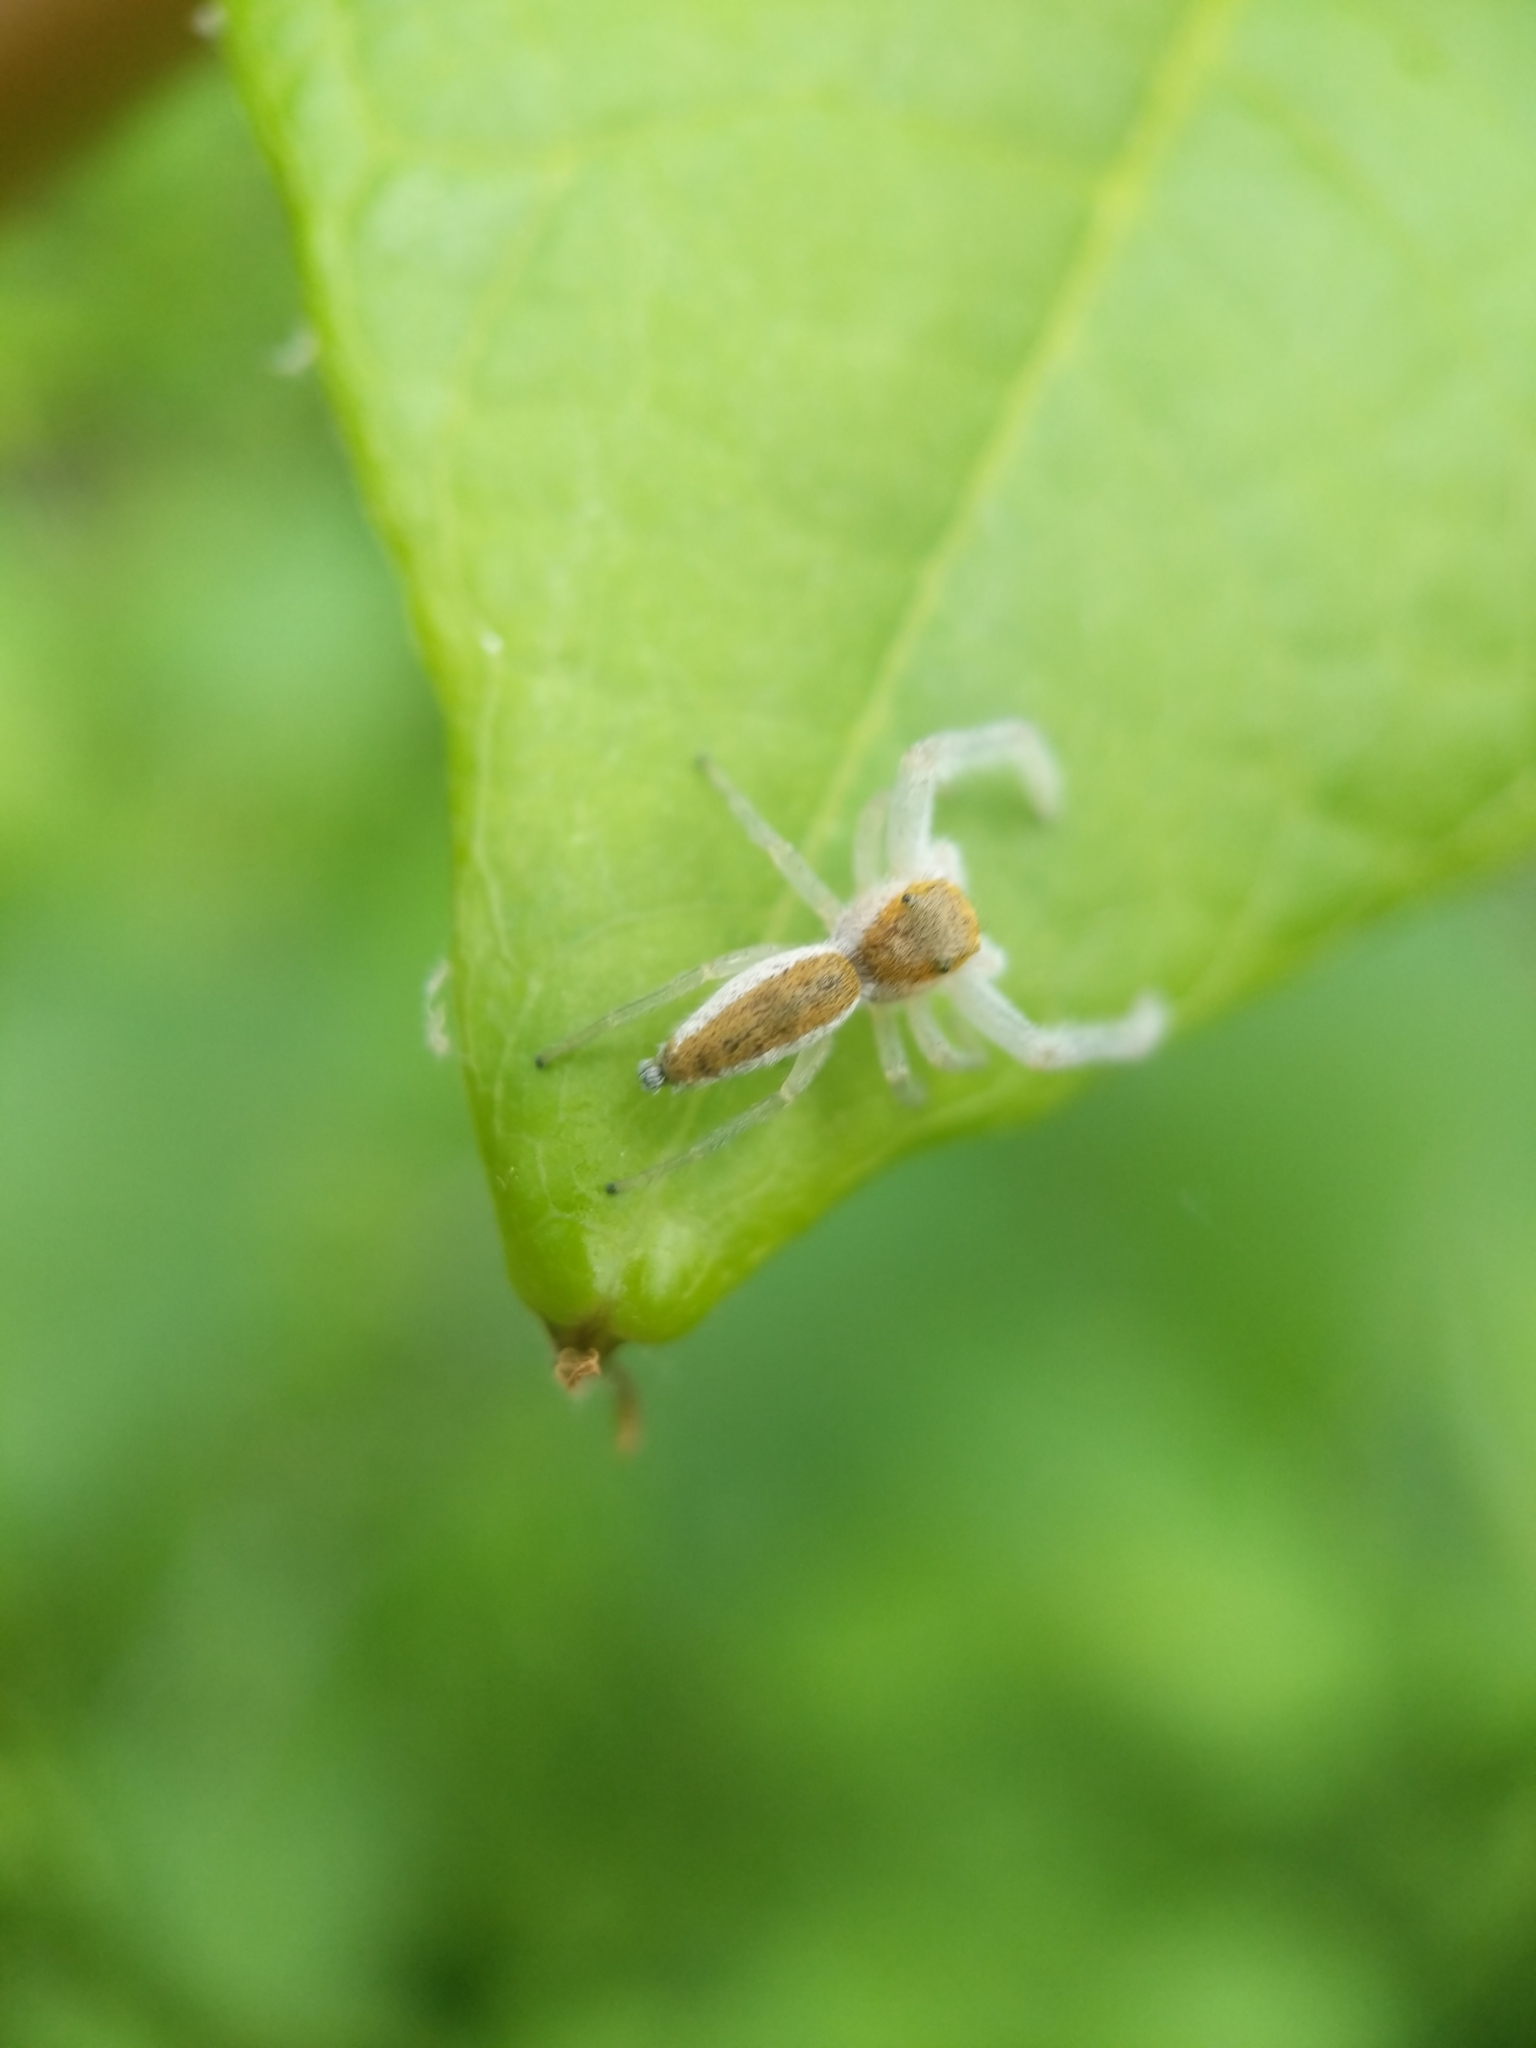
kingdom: Animalia
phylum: Arthropoda
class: Arachnida
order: Araneae
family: Salticidae
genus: Hentzia
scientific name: Hentzia mitrata
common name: White-jawed jumping spider
